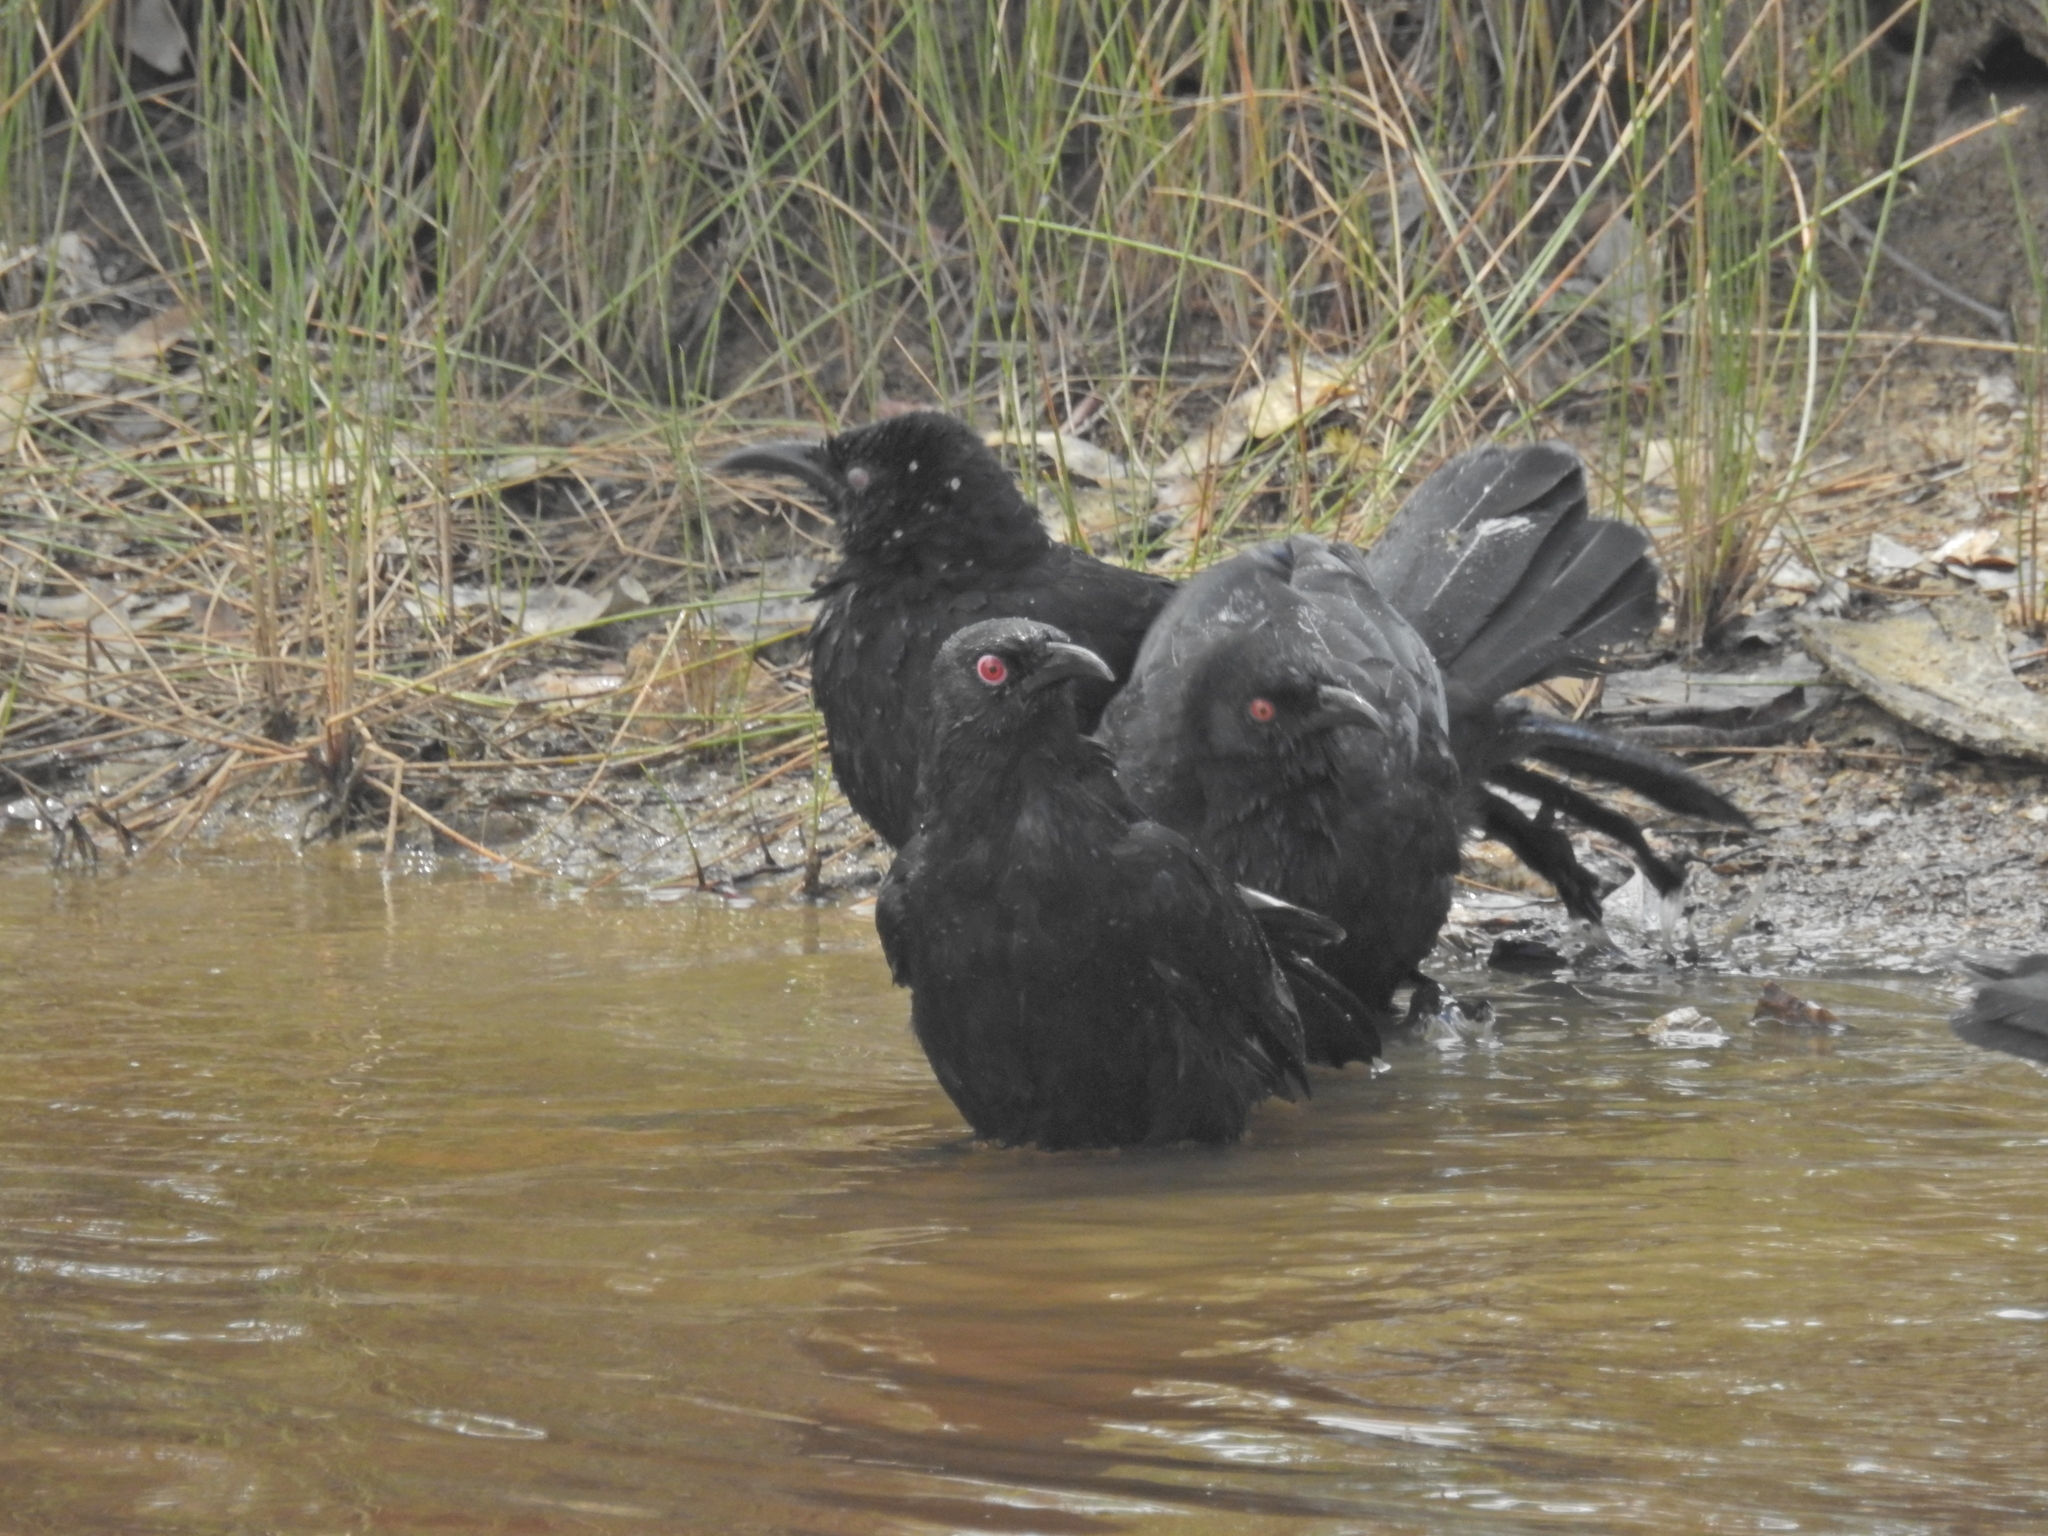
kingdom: Animalia
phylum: Chordata
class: Aves
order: Passeriformes
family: Corcoracidae
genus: Corcorax
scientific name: Corcorax melanoramphos
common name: White-winged chough
